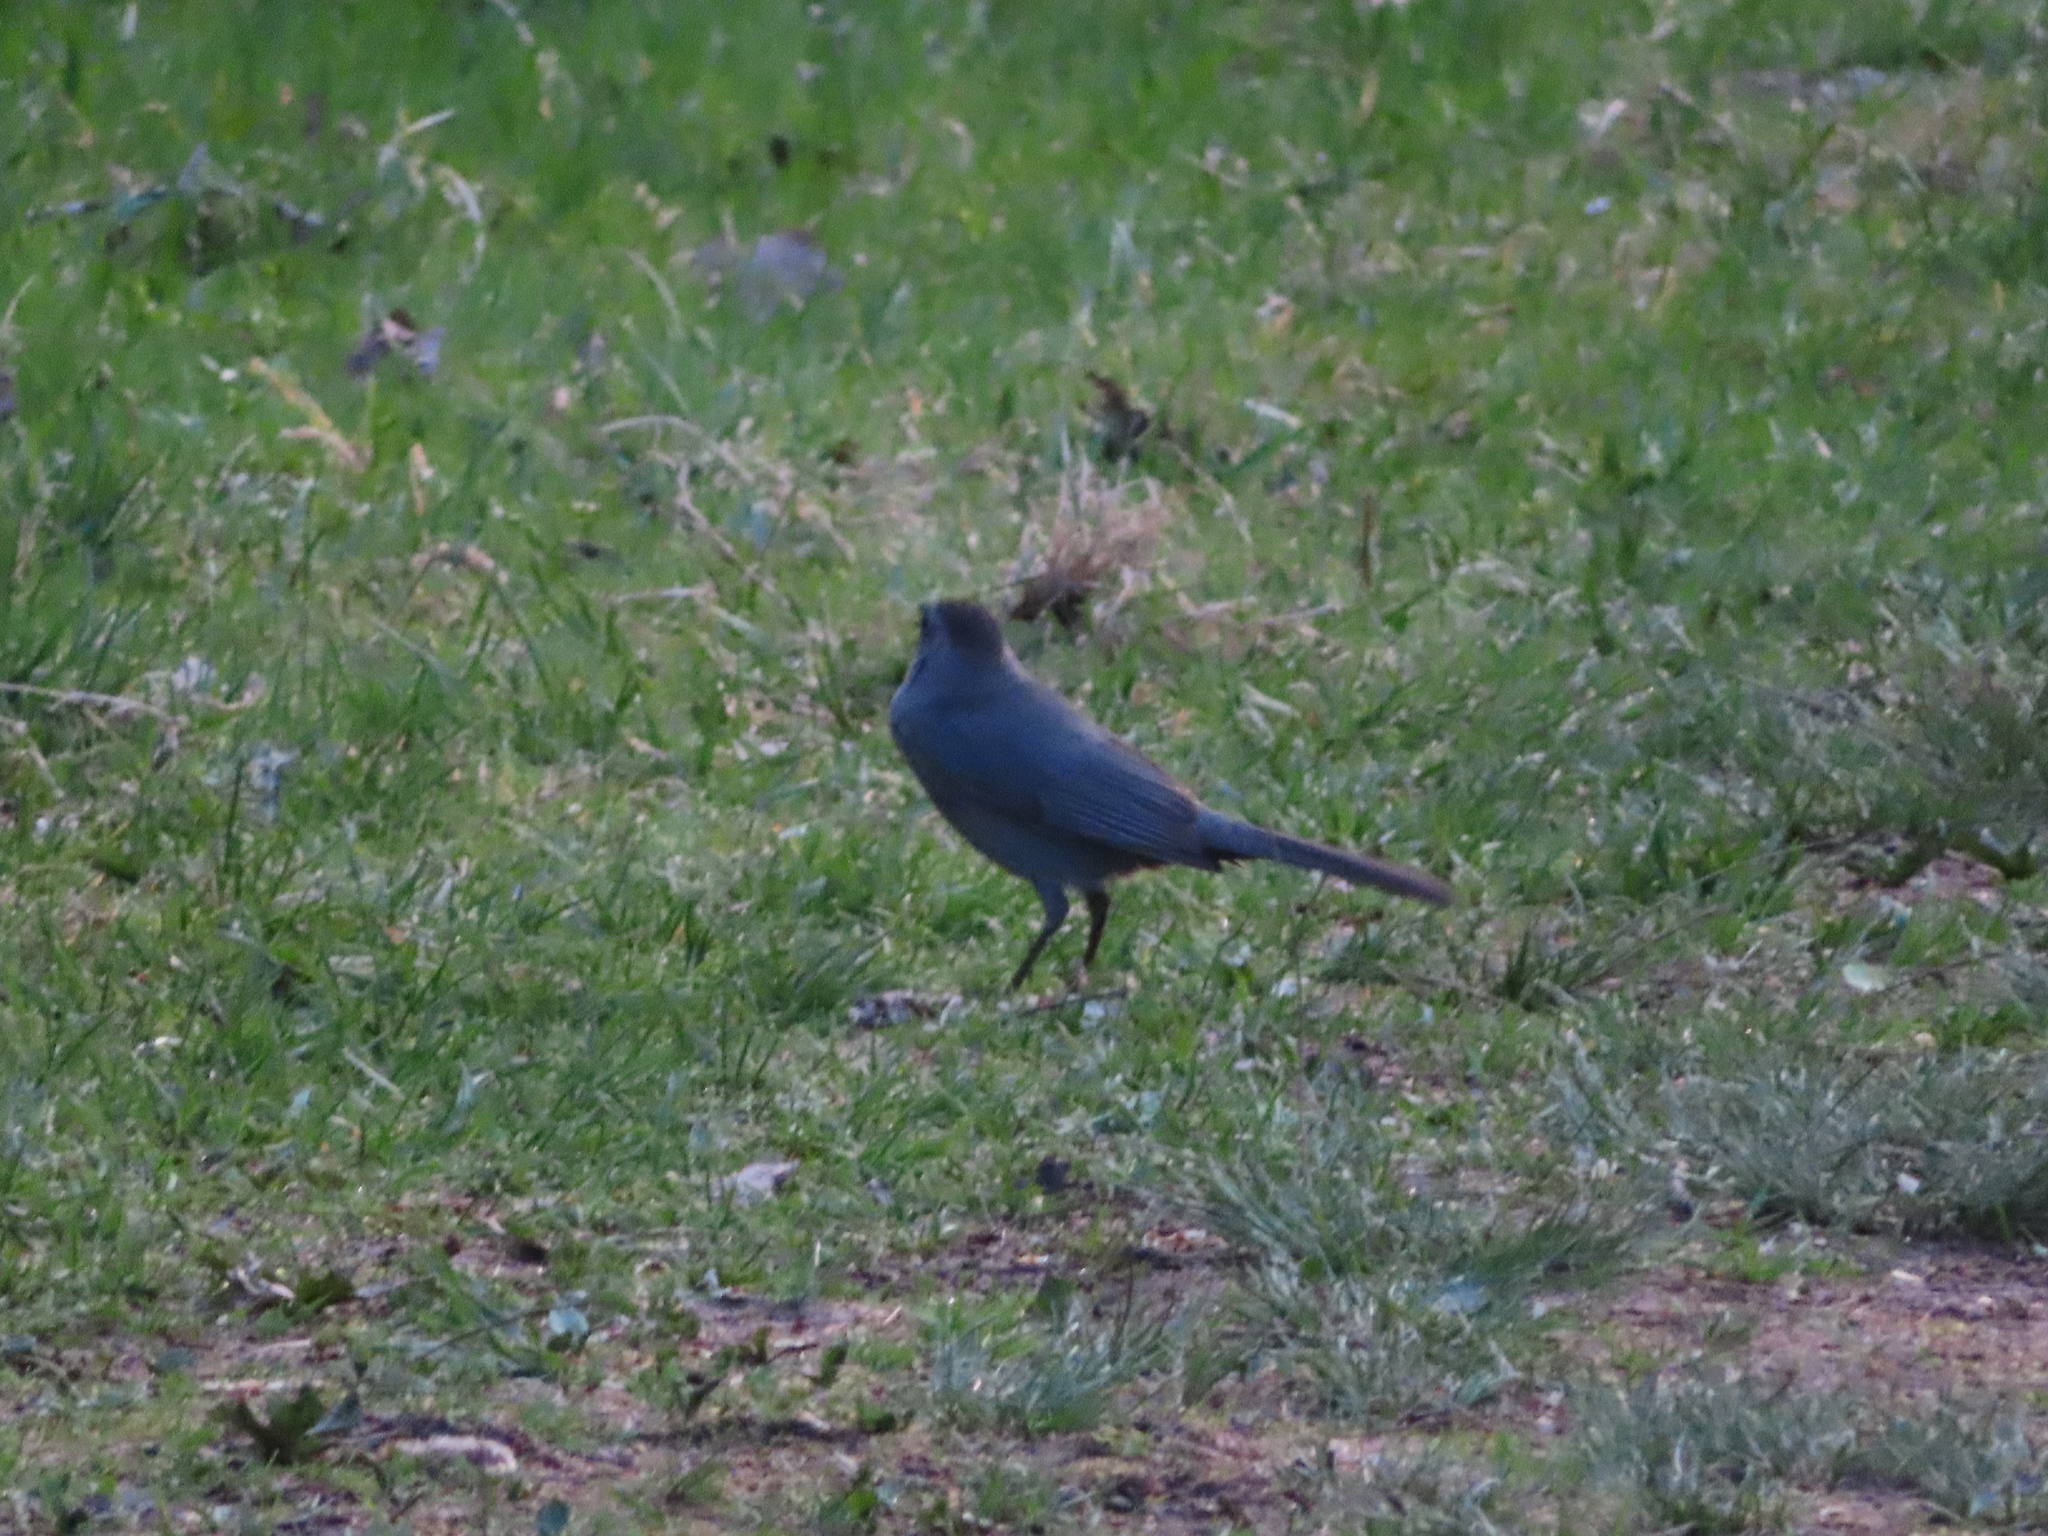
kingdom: Animalia
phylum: Chordata
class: Aves
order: Passeriformes
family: Mimidae
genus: Dumetella
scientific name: Dumetella carolinensis
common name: Gray catbird
